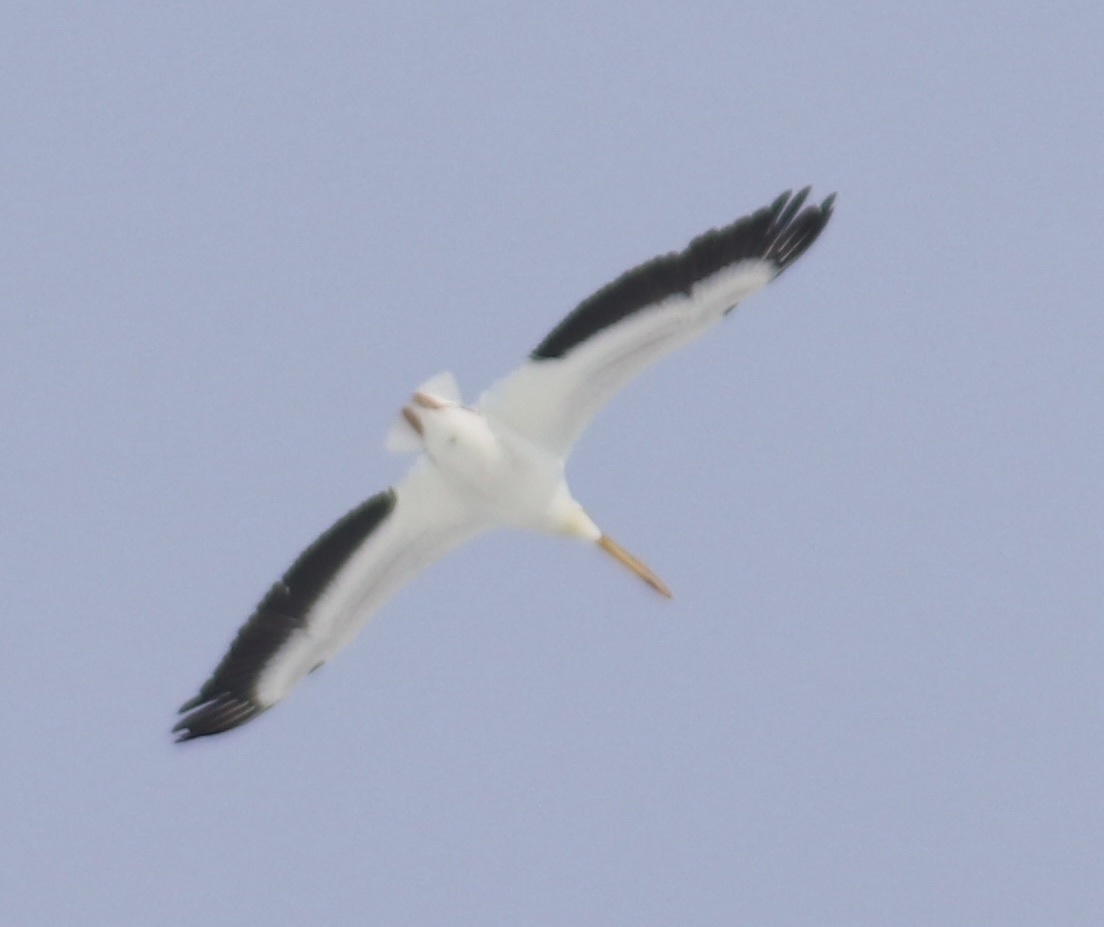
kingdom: Animalia
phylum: Chordata
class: Aves
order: Pelecaniformes
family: Pelecanidae
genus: Pelecanus
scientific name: Pelecanus erythrorhynchos
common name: American white pelican
